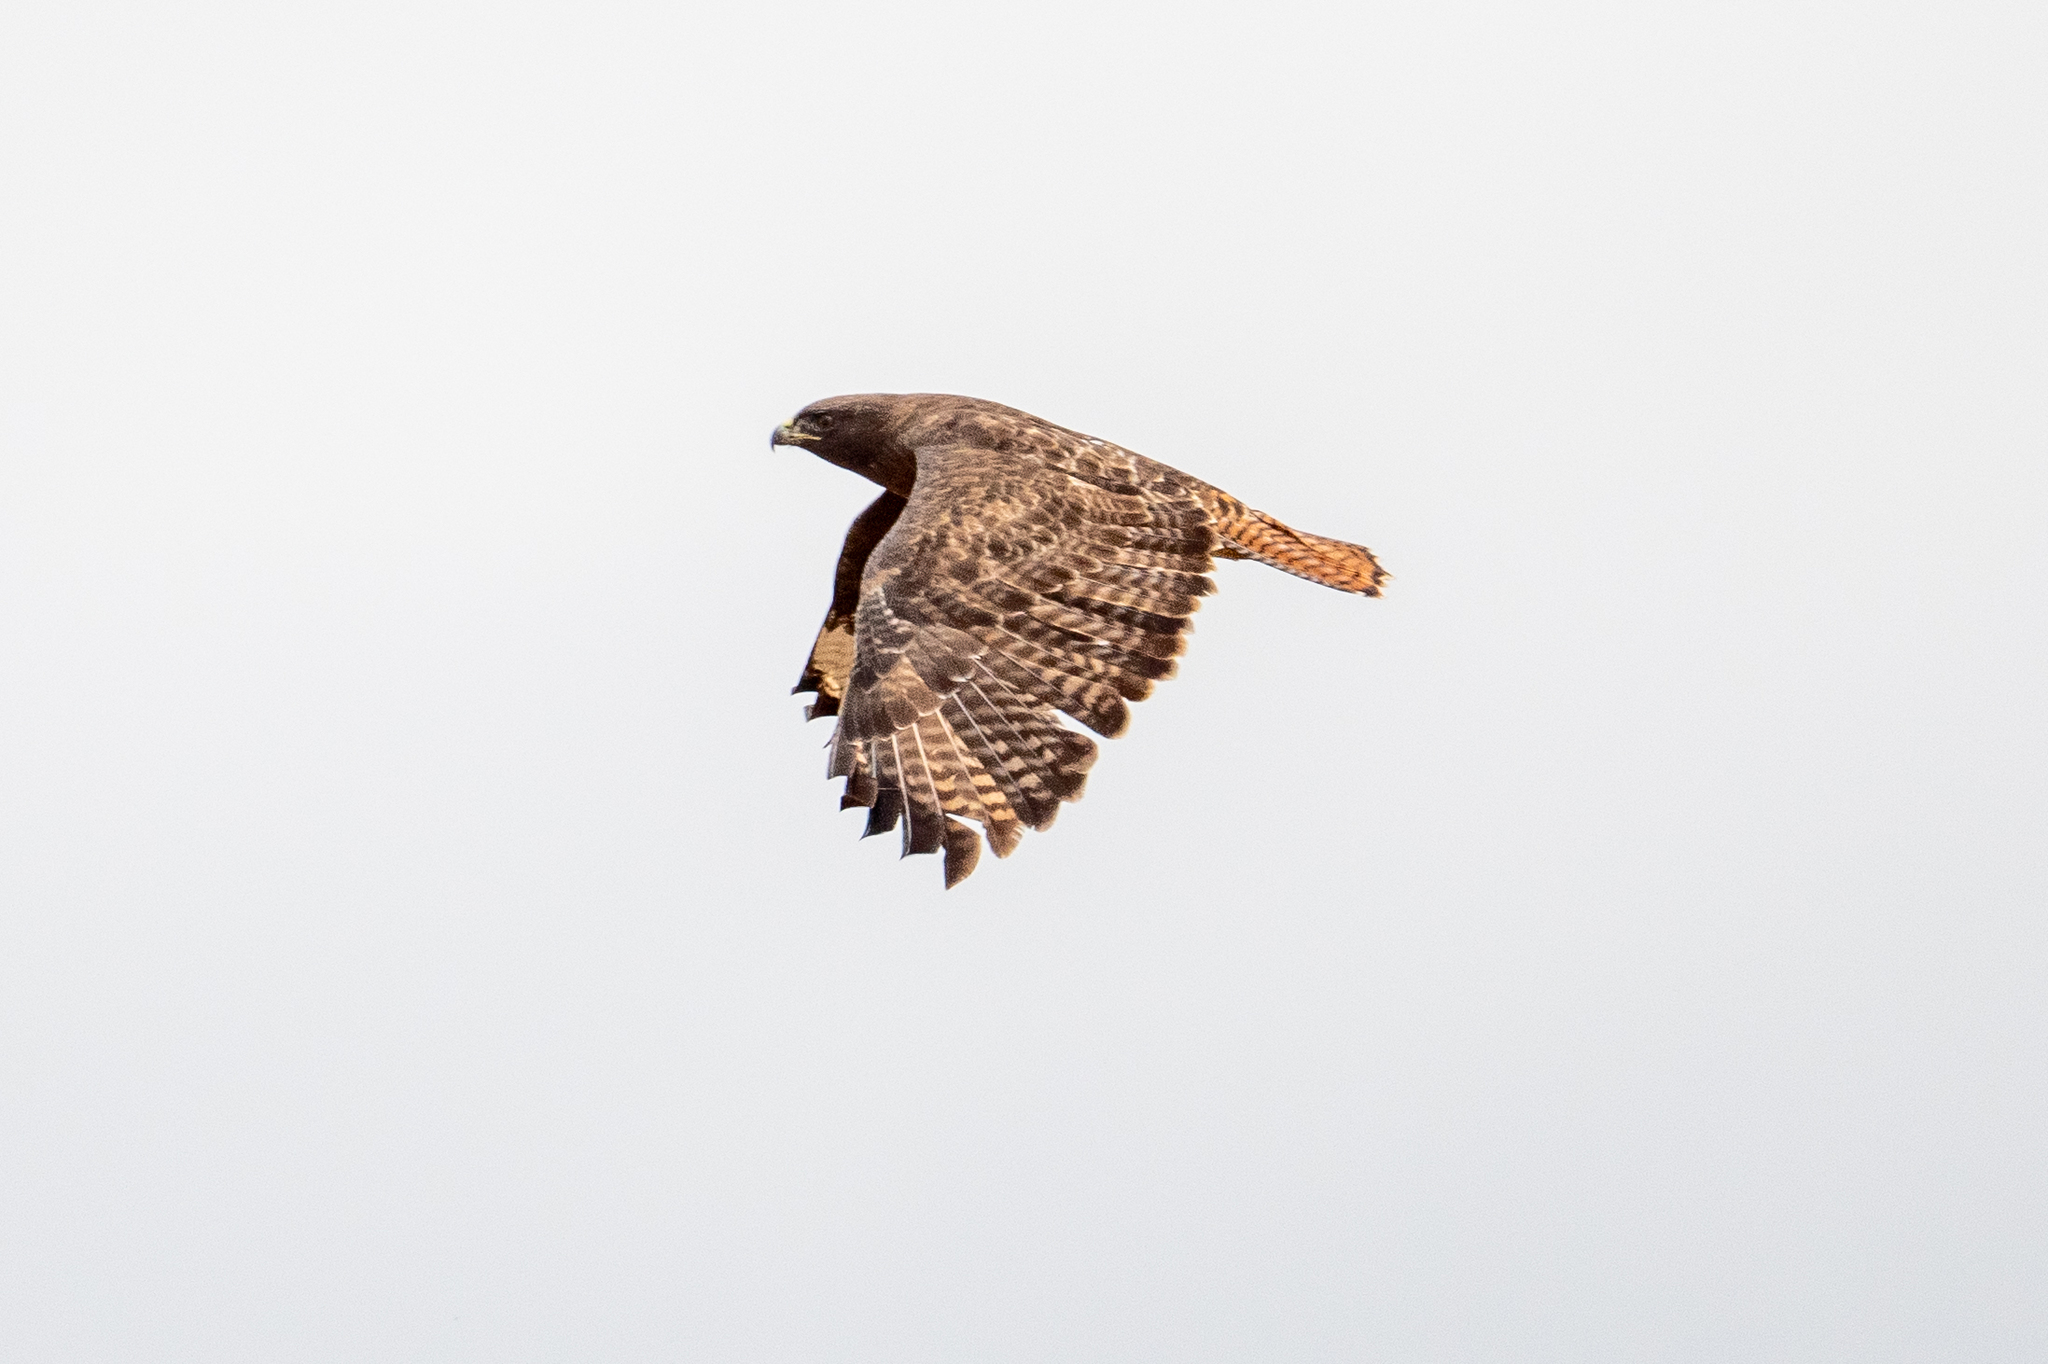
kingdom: Animalia
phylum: Chordata
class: Aves
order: Accipitriformes
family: Accipitridae
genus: Buteo
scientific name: Buteo jamaicensis
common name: Red-tailed hawk
